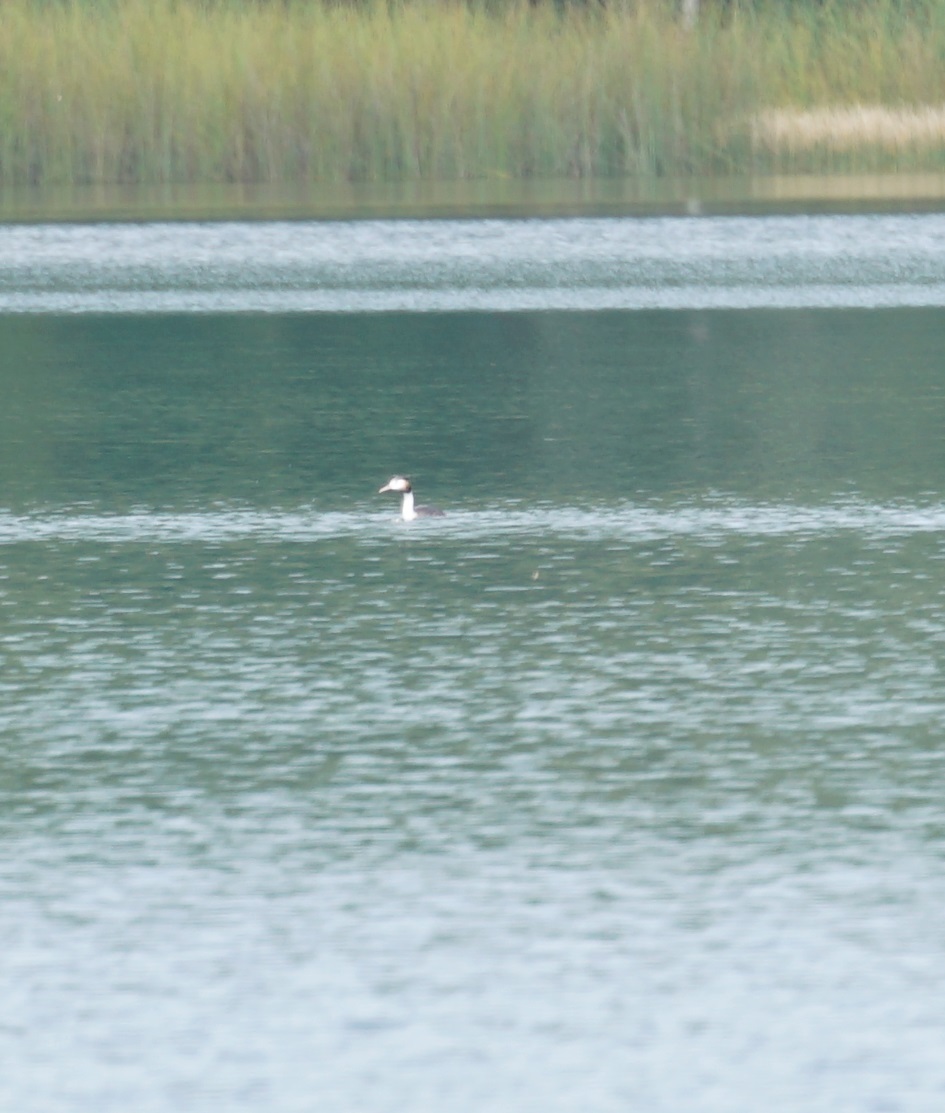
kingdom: Animalia
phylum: Chordata
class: Aves
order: Podicipediformes
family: Podicipedidae
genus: Podiceps
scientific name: Podiceps cristatus
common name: Great crested grebe
